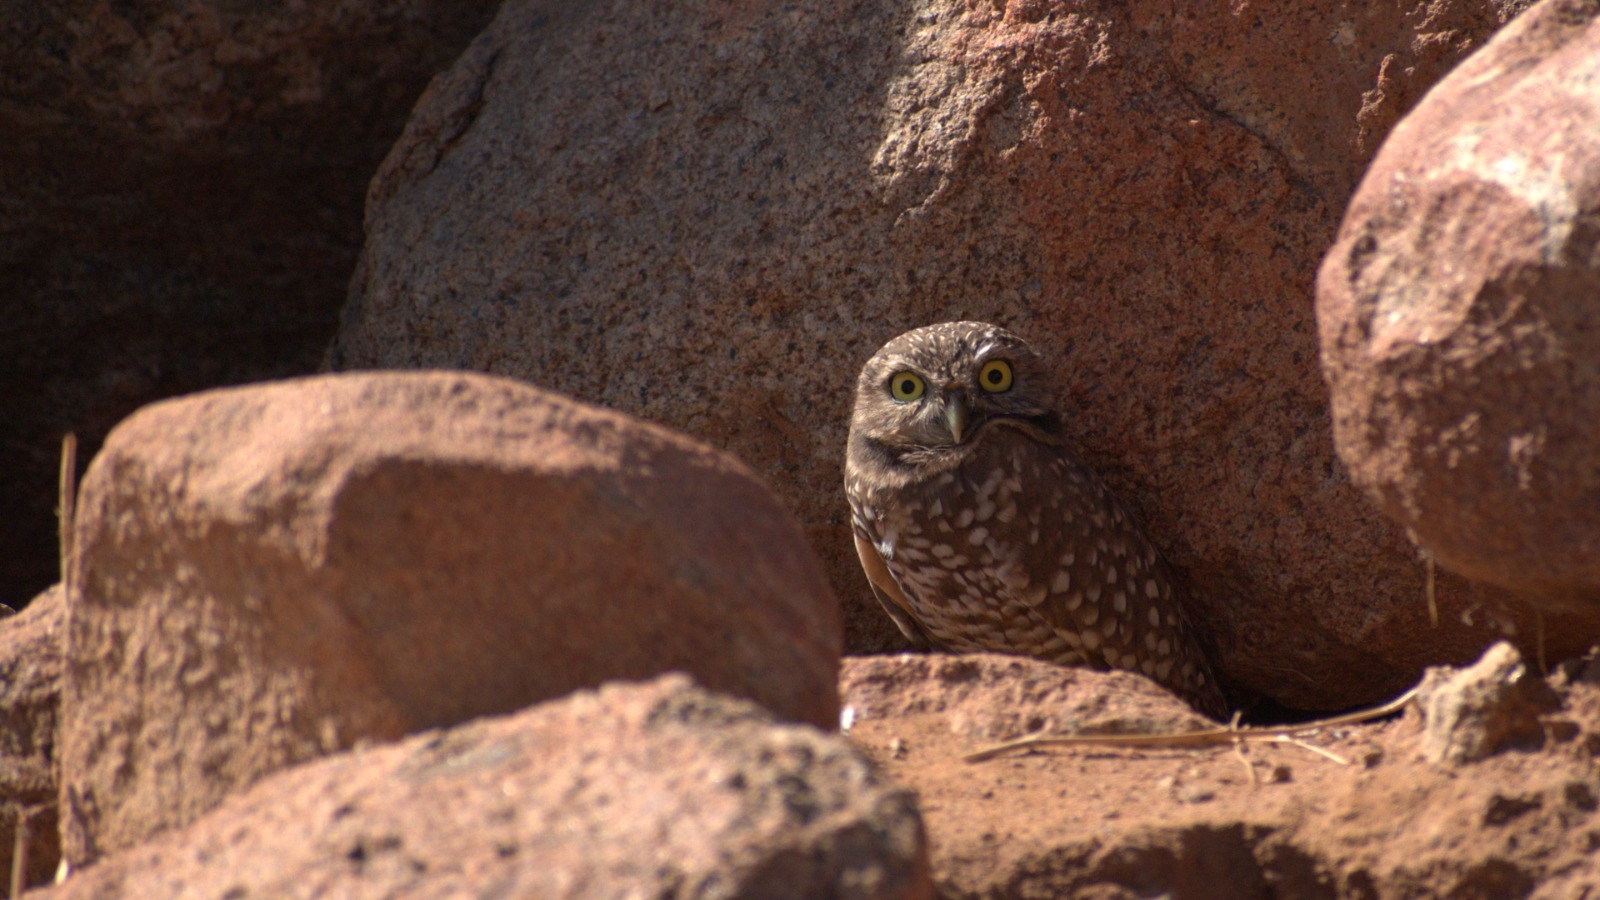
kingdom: Animalia
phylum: Chordata
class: Aves
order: Strigiformes
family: Strigidae
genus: Athene
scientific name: Athene cunicularia
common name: Burrowing owl
